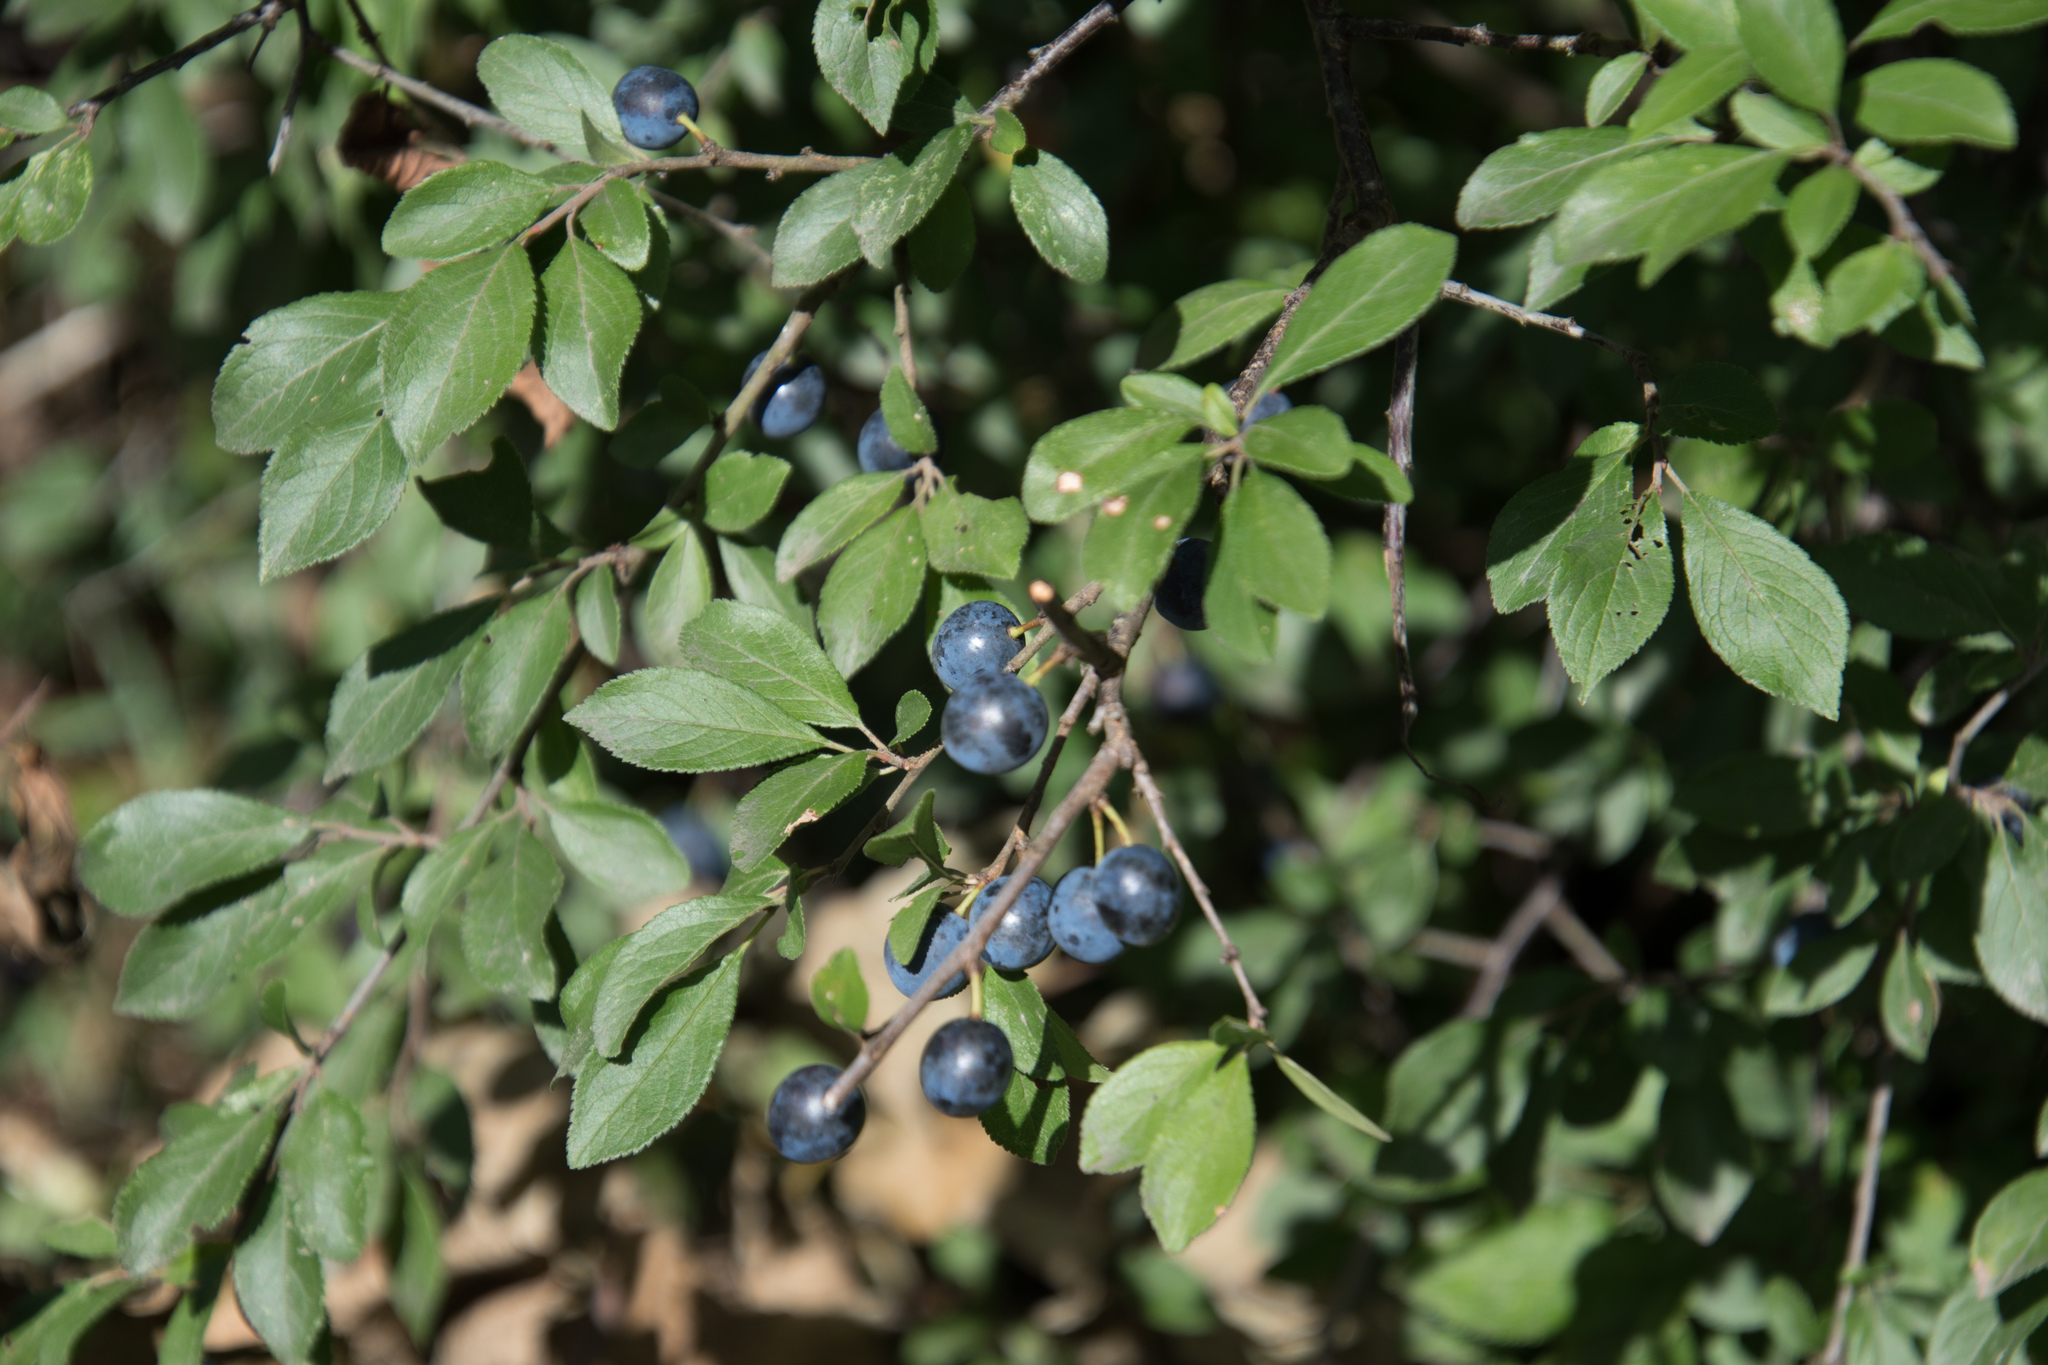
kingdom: Plantae
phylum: Tracheophyta
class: Magnoliopsida
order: Rosales
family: Rosaceae
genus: Prunus
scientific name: Prunus spinosa
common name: Blackthorn
